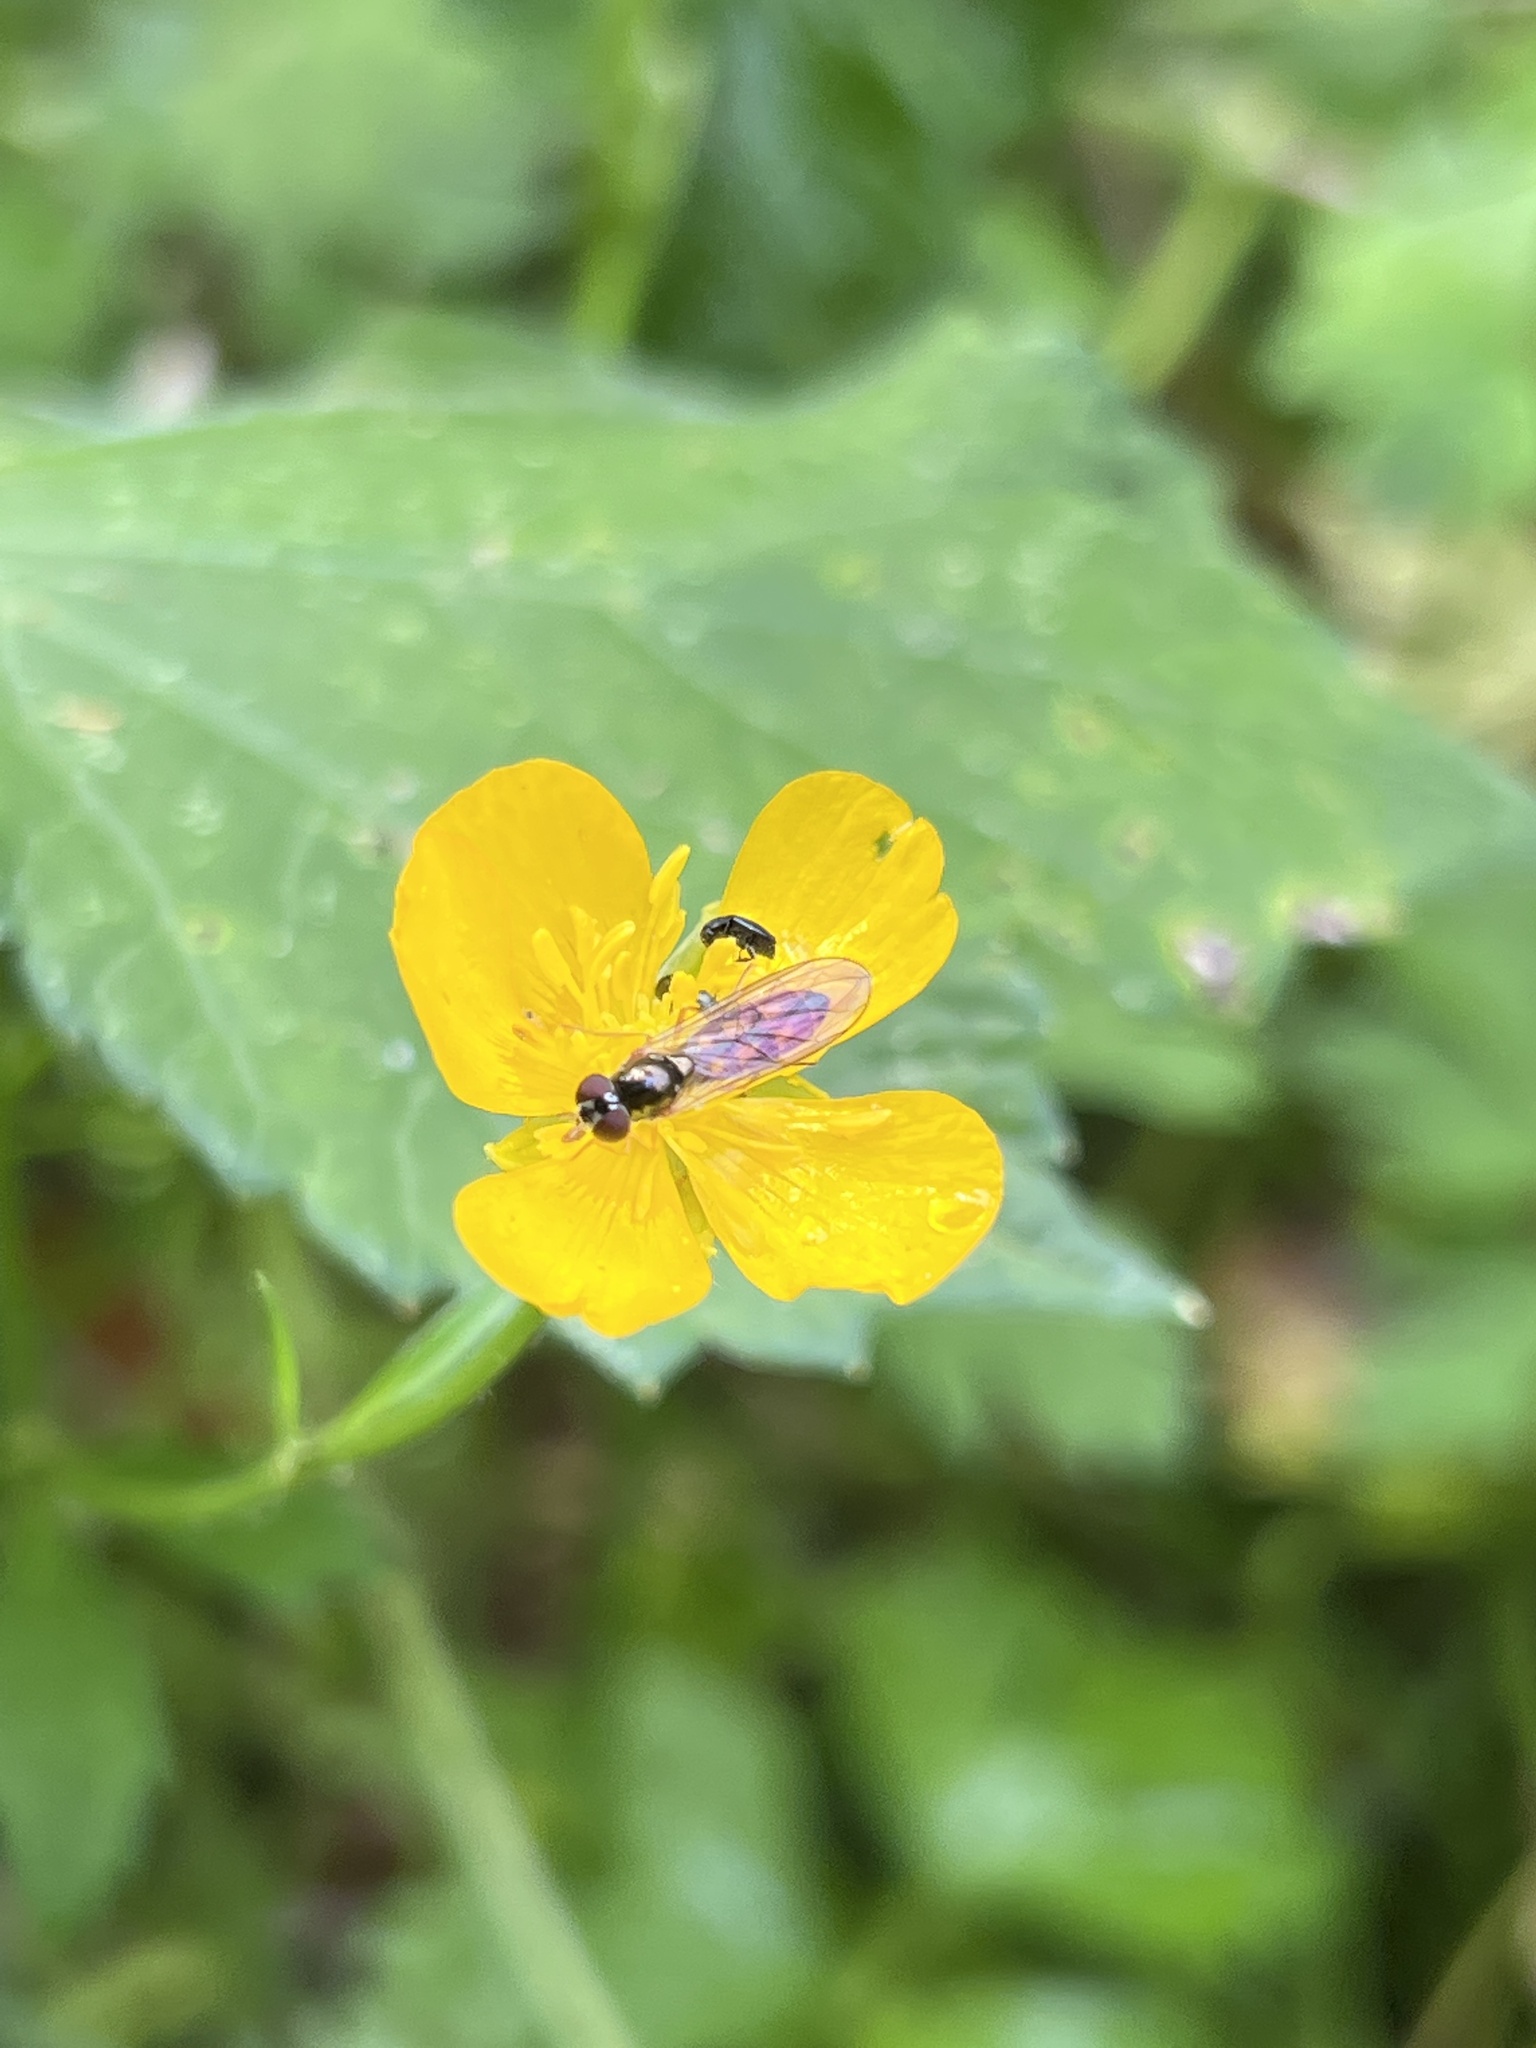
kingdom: Animalia
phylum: Arthropoda
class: Insecta
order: Diptera
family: Syrphidae
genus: Melanostoma
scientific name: Melanostoma scalare
